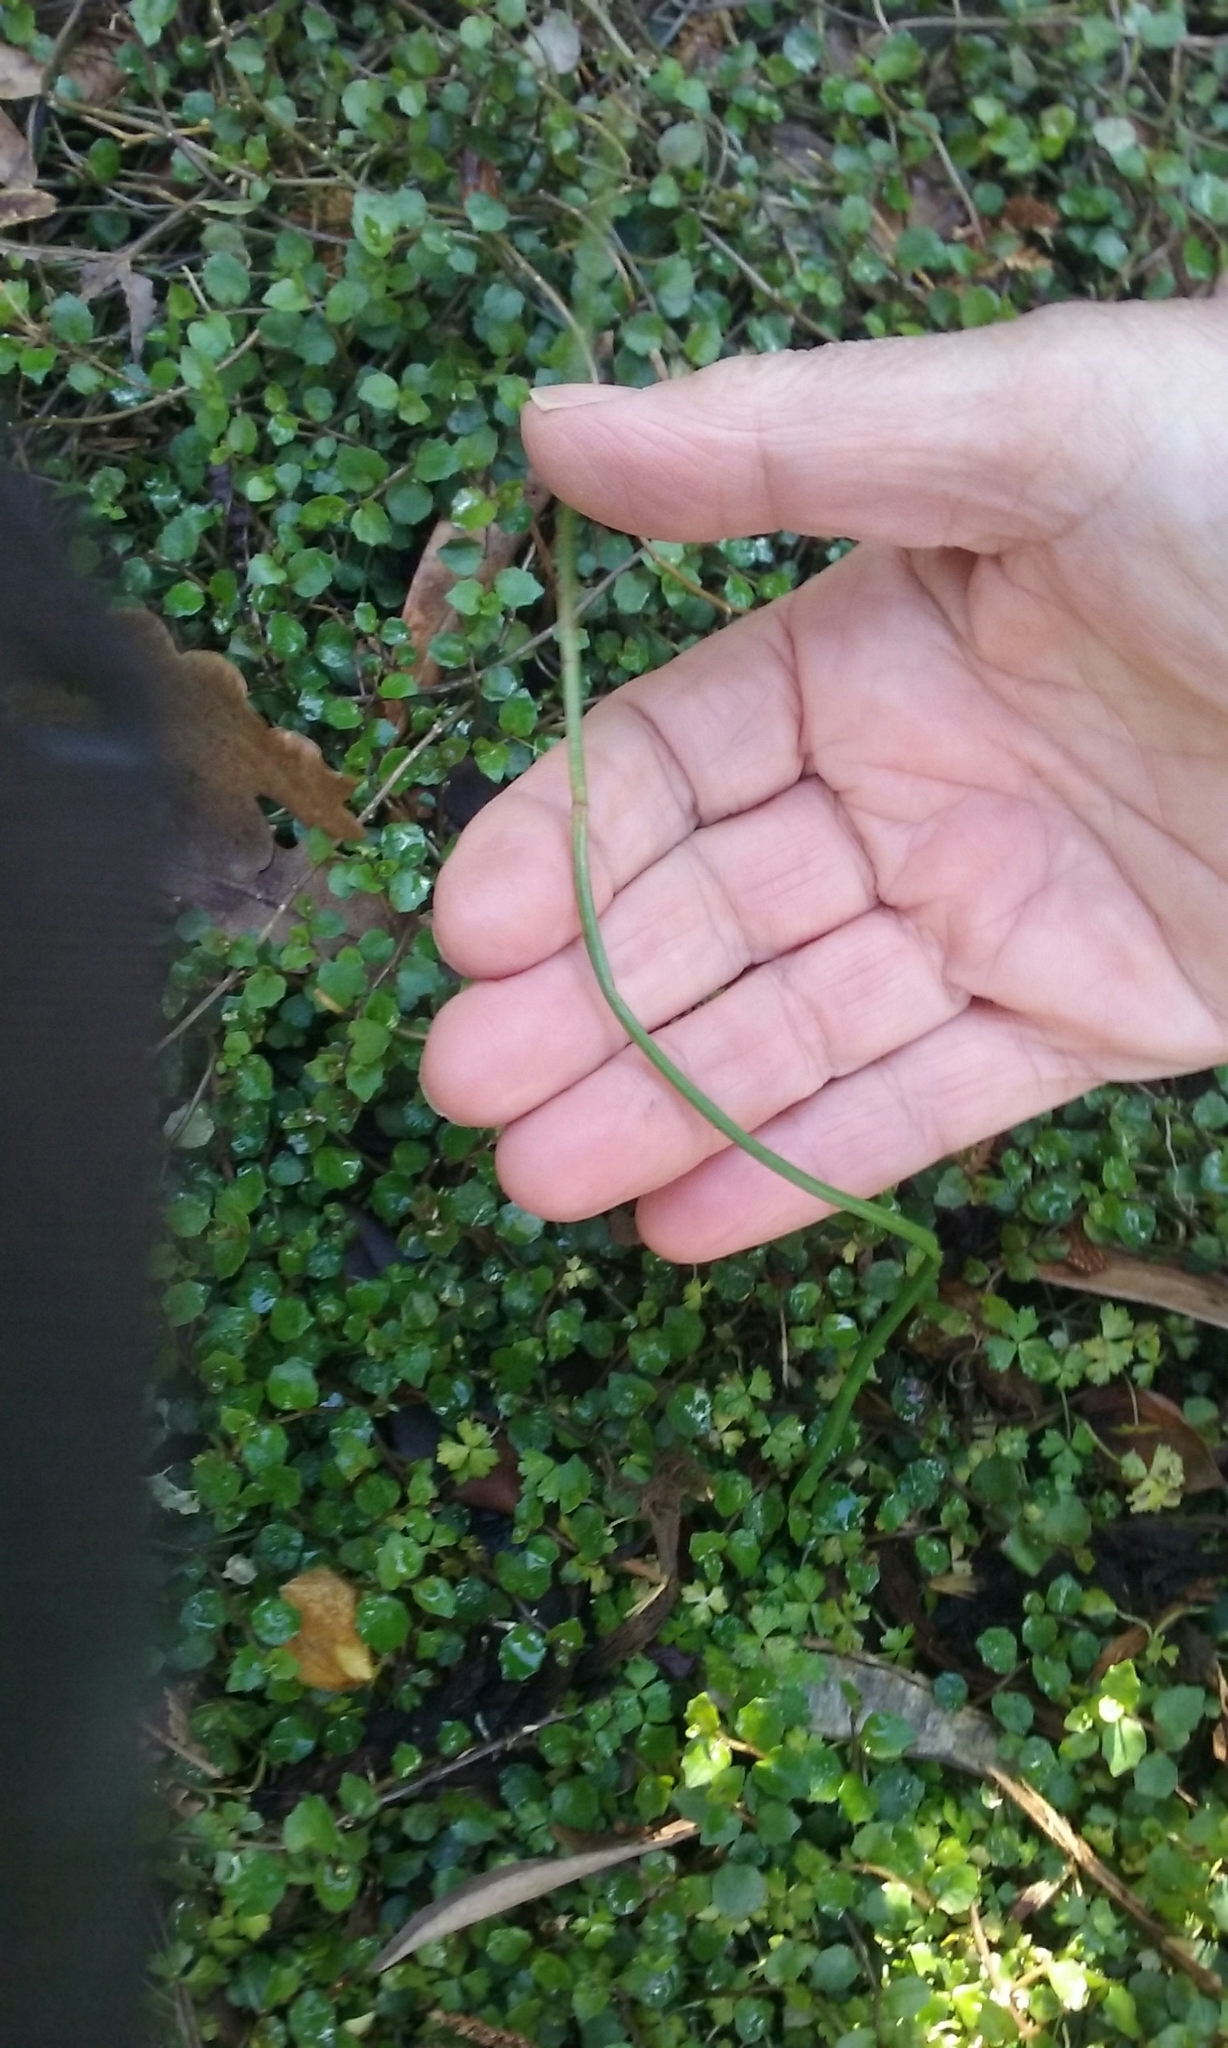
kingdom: Plantae
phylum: Tracheophyta
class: Liliopsida
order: Asparagales
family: Orchidaceae
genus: Microtis
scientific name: Microtis unifolia
